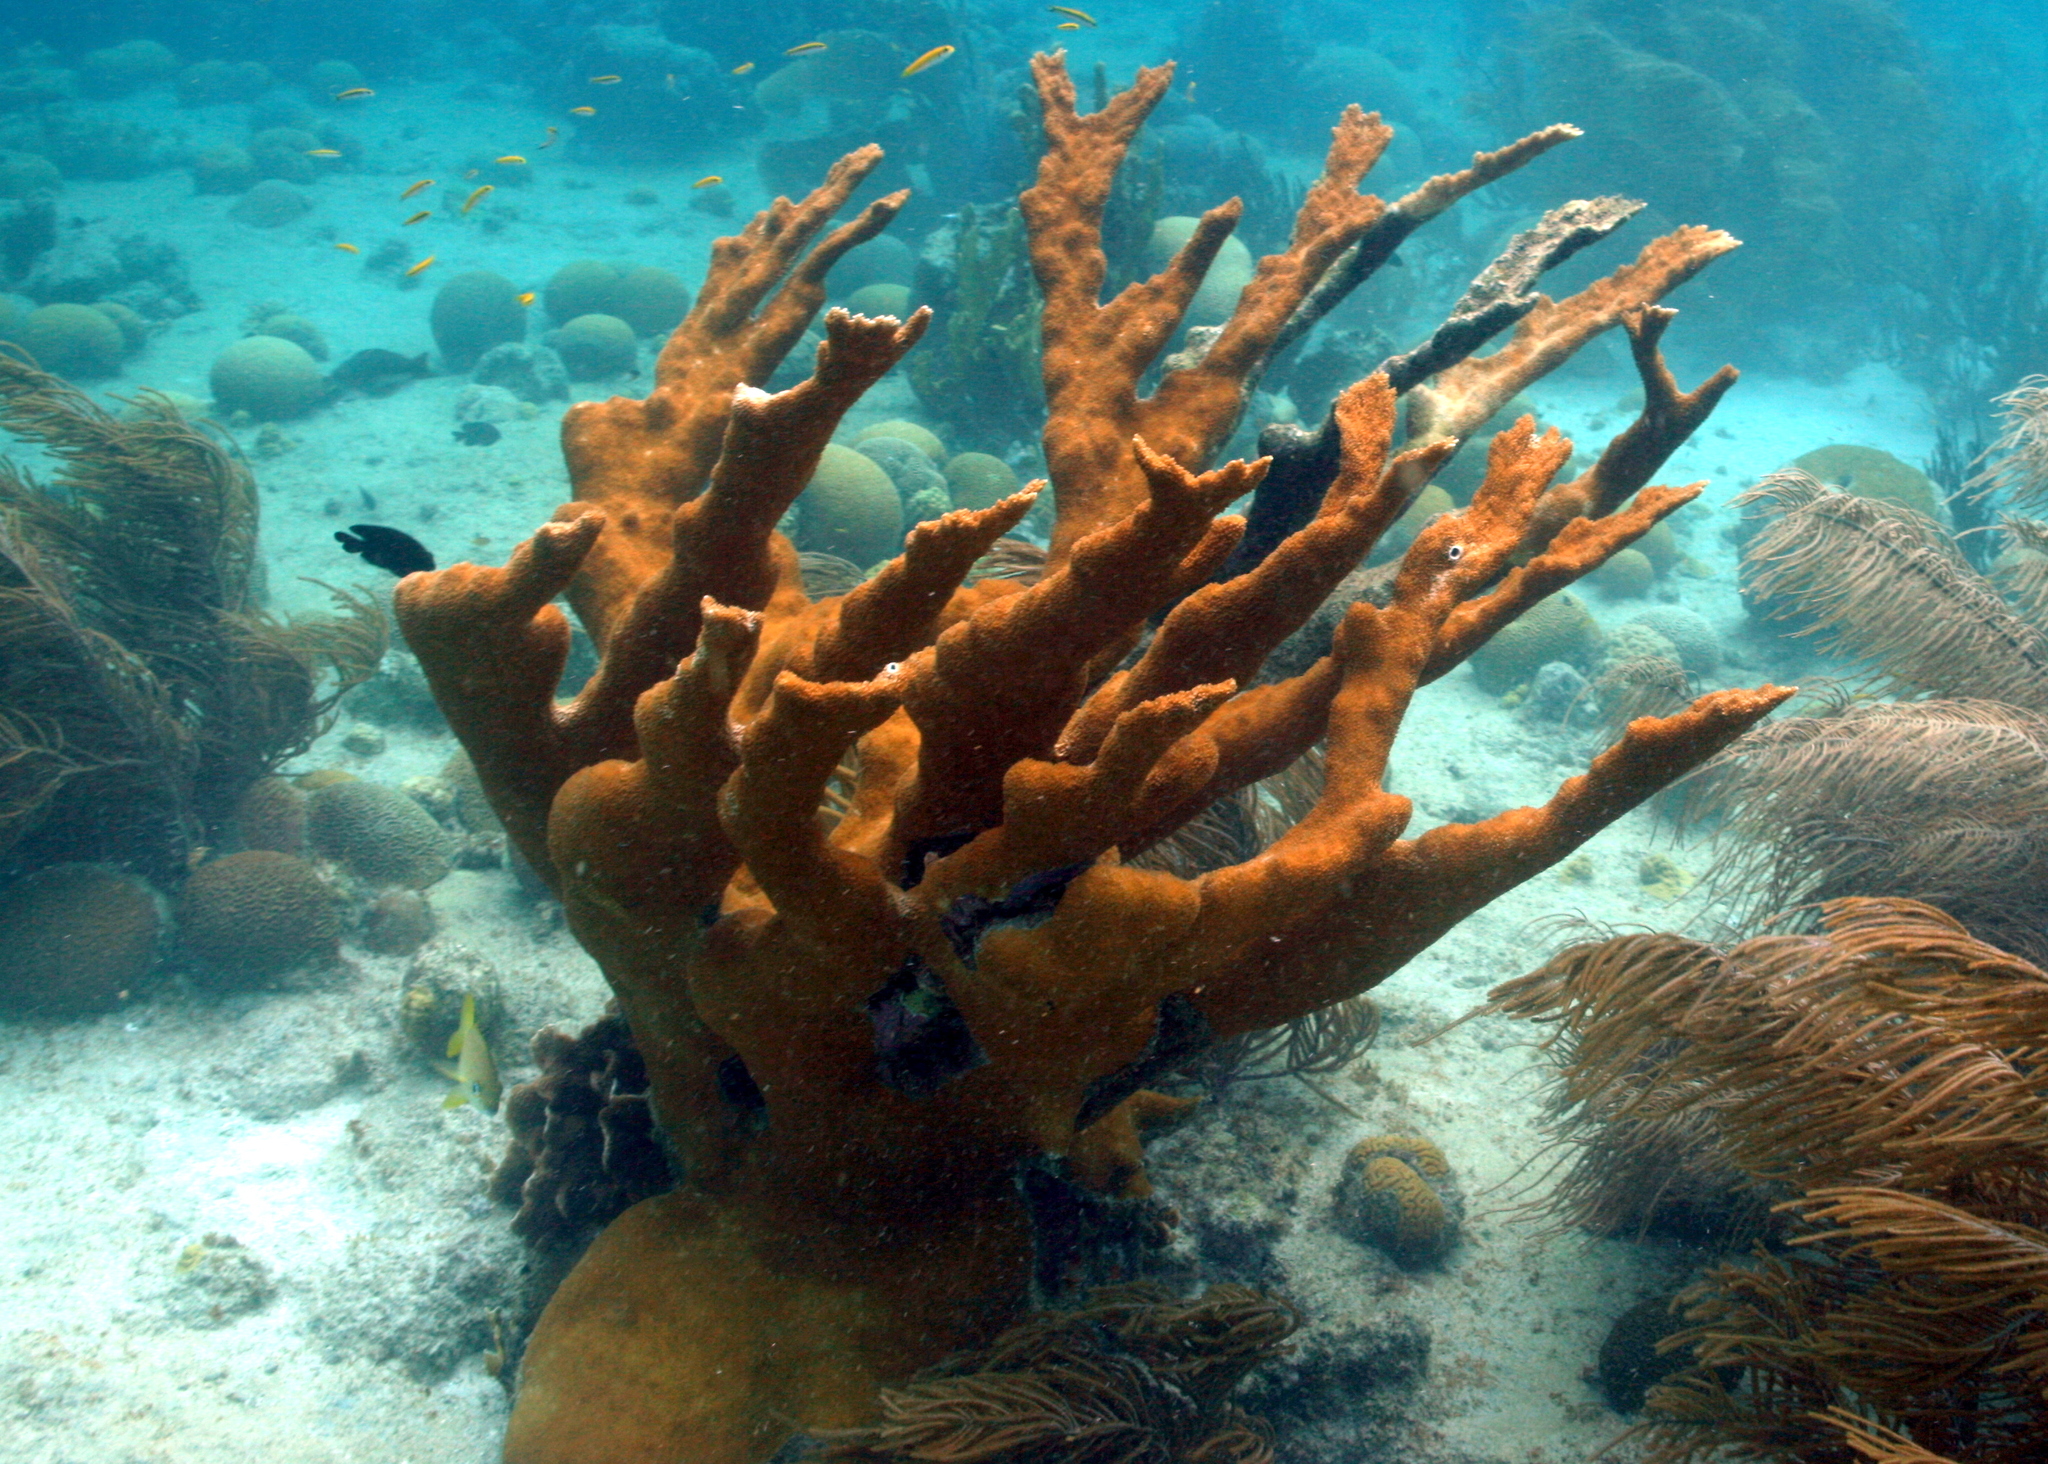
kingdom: Animalia
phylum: Cnidaria
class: Anthozoa
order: Scleractinia
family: Acroporidae
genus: Acropora
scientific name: Acropora palmata
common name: Elkhorn coral
